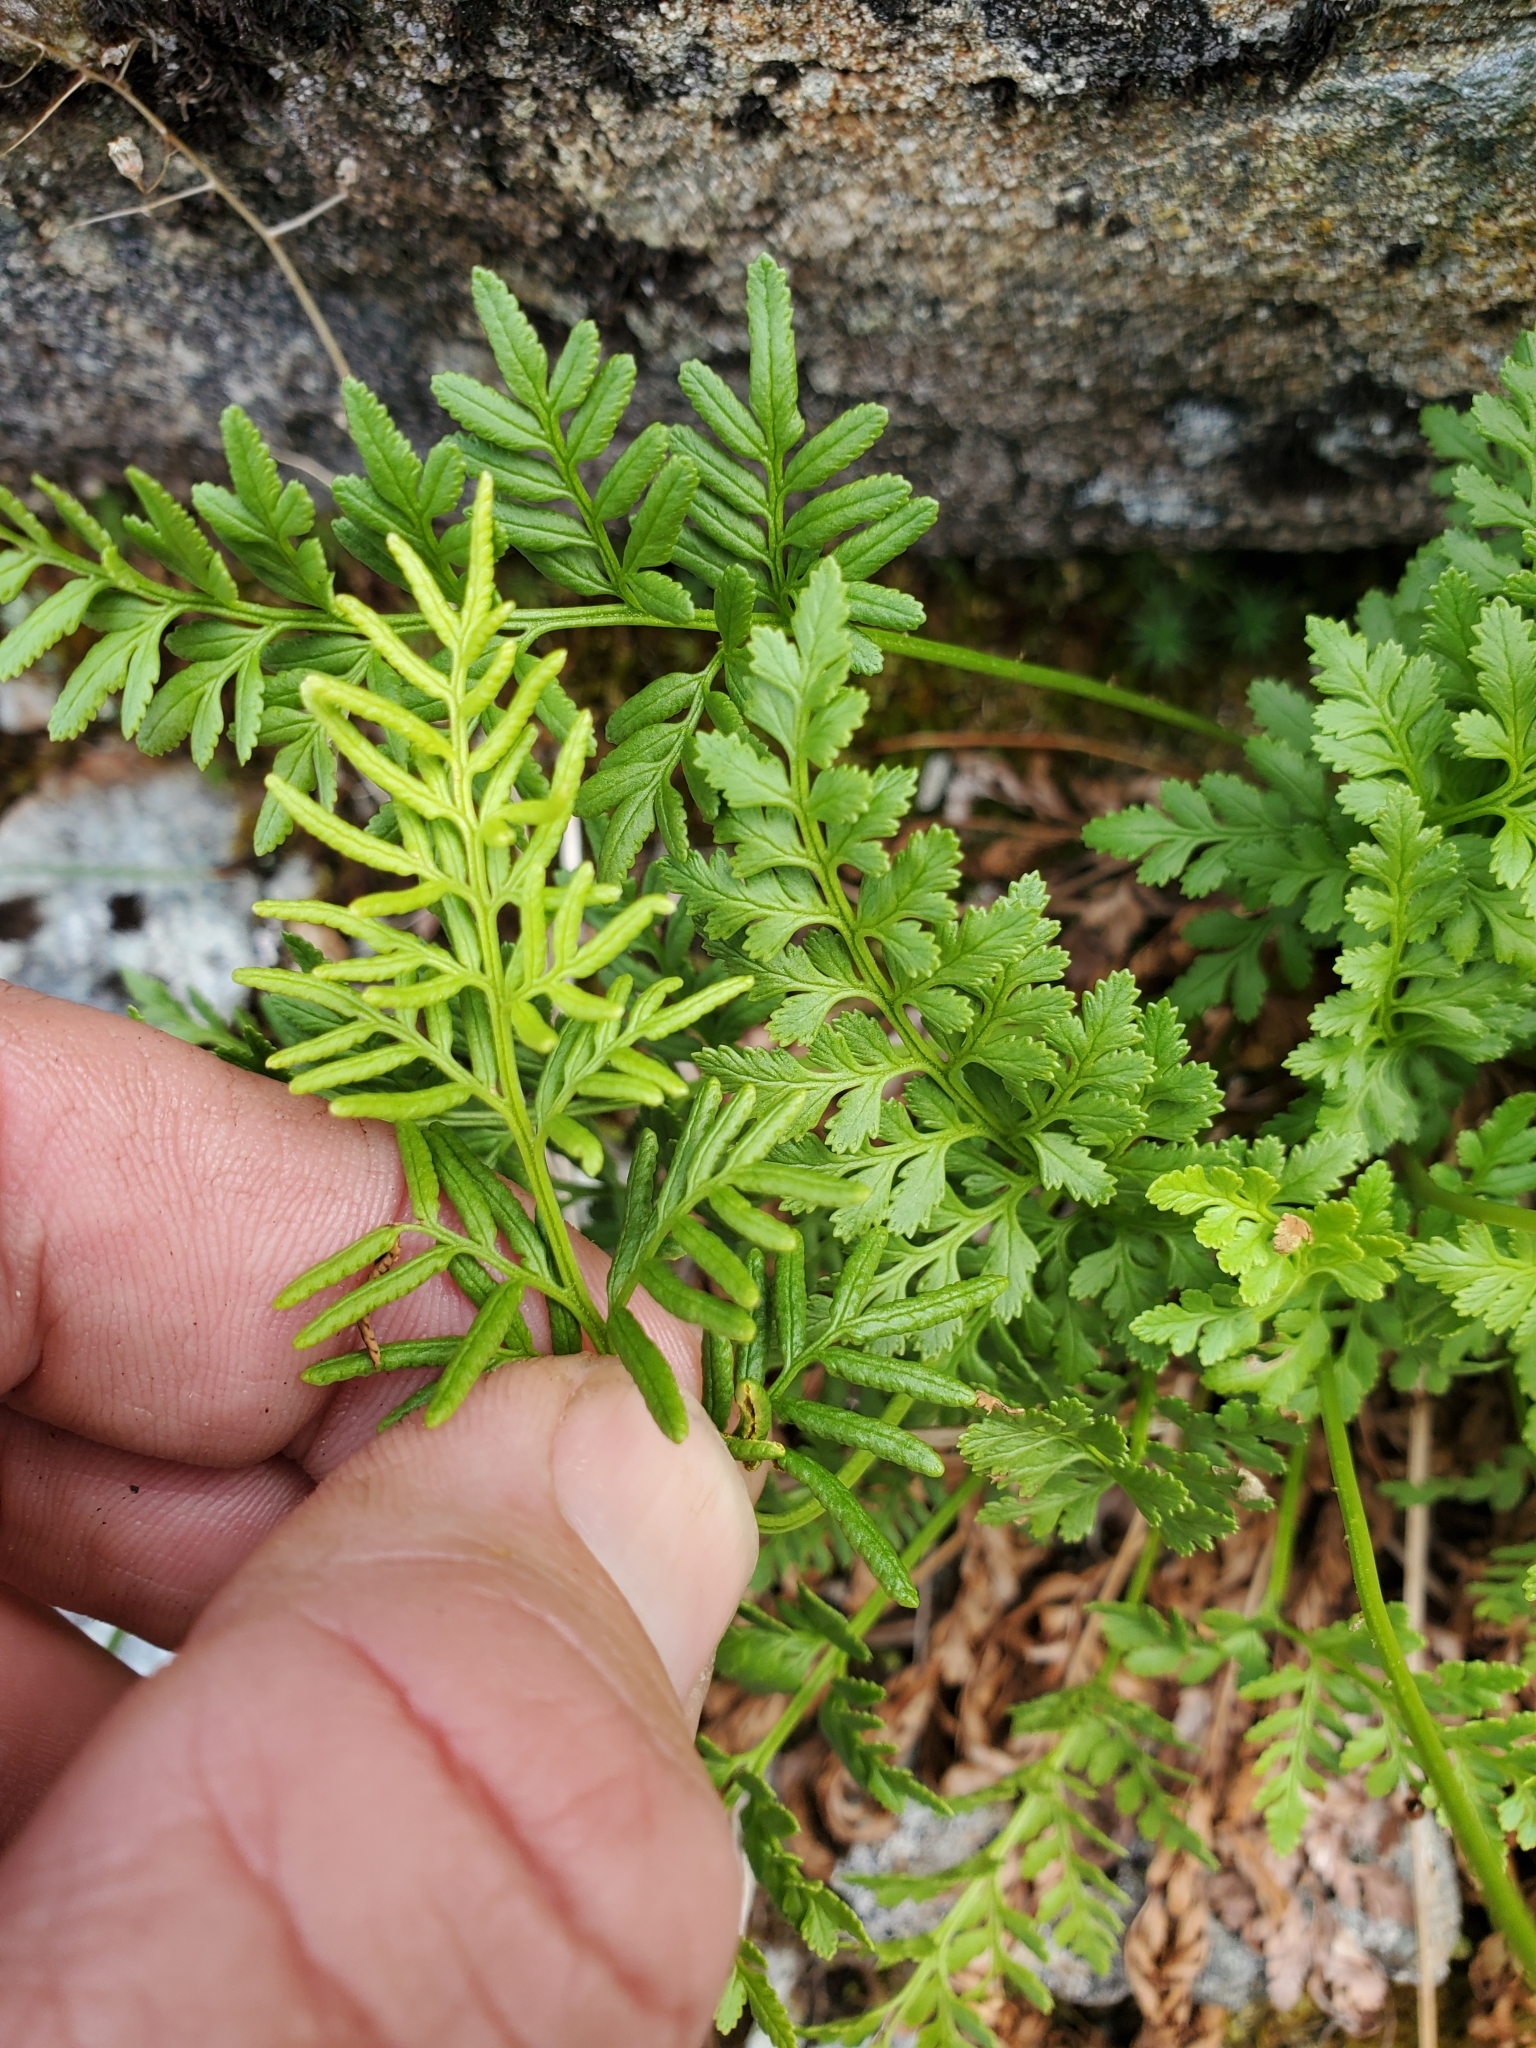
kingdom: Plantae
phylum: Tracheophyta
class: Polypodiopsida
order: Polypodiales
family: Pteridaceae
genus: Cryptogramma
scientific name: Cryptogramma acrostichoides
